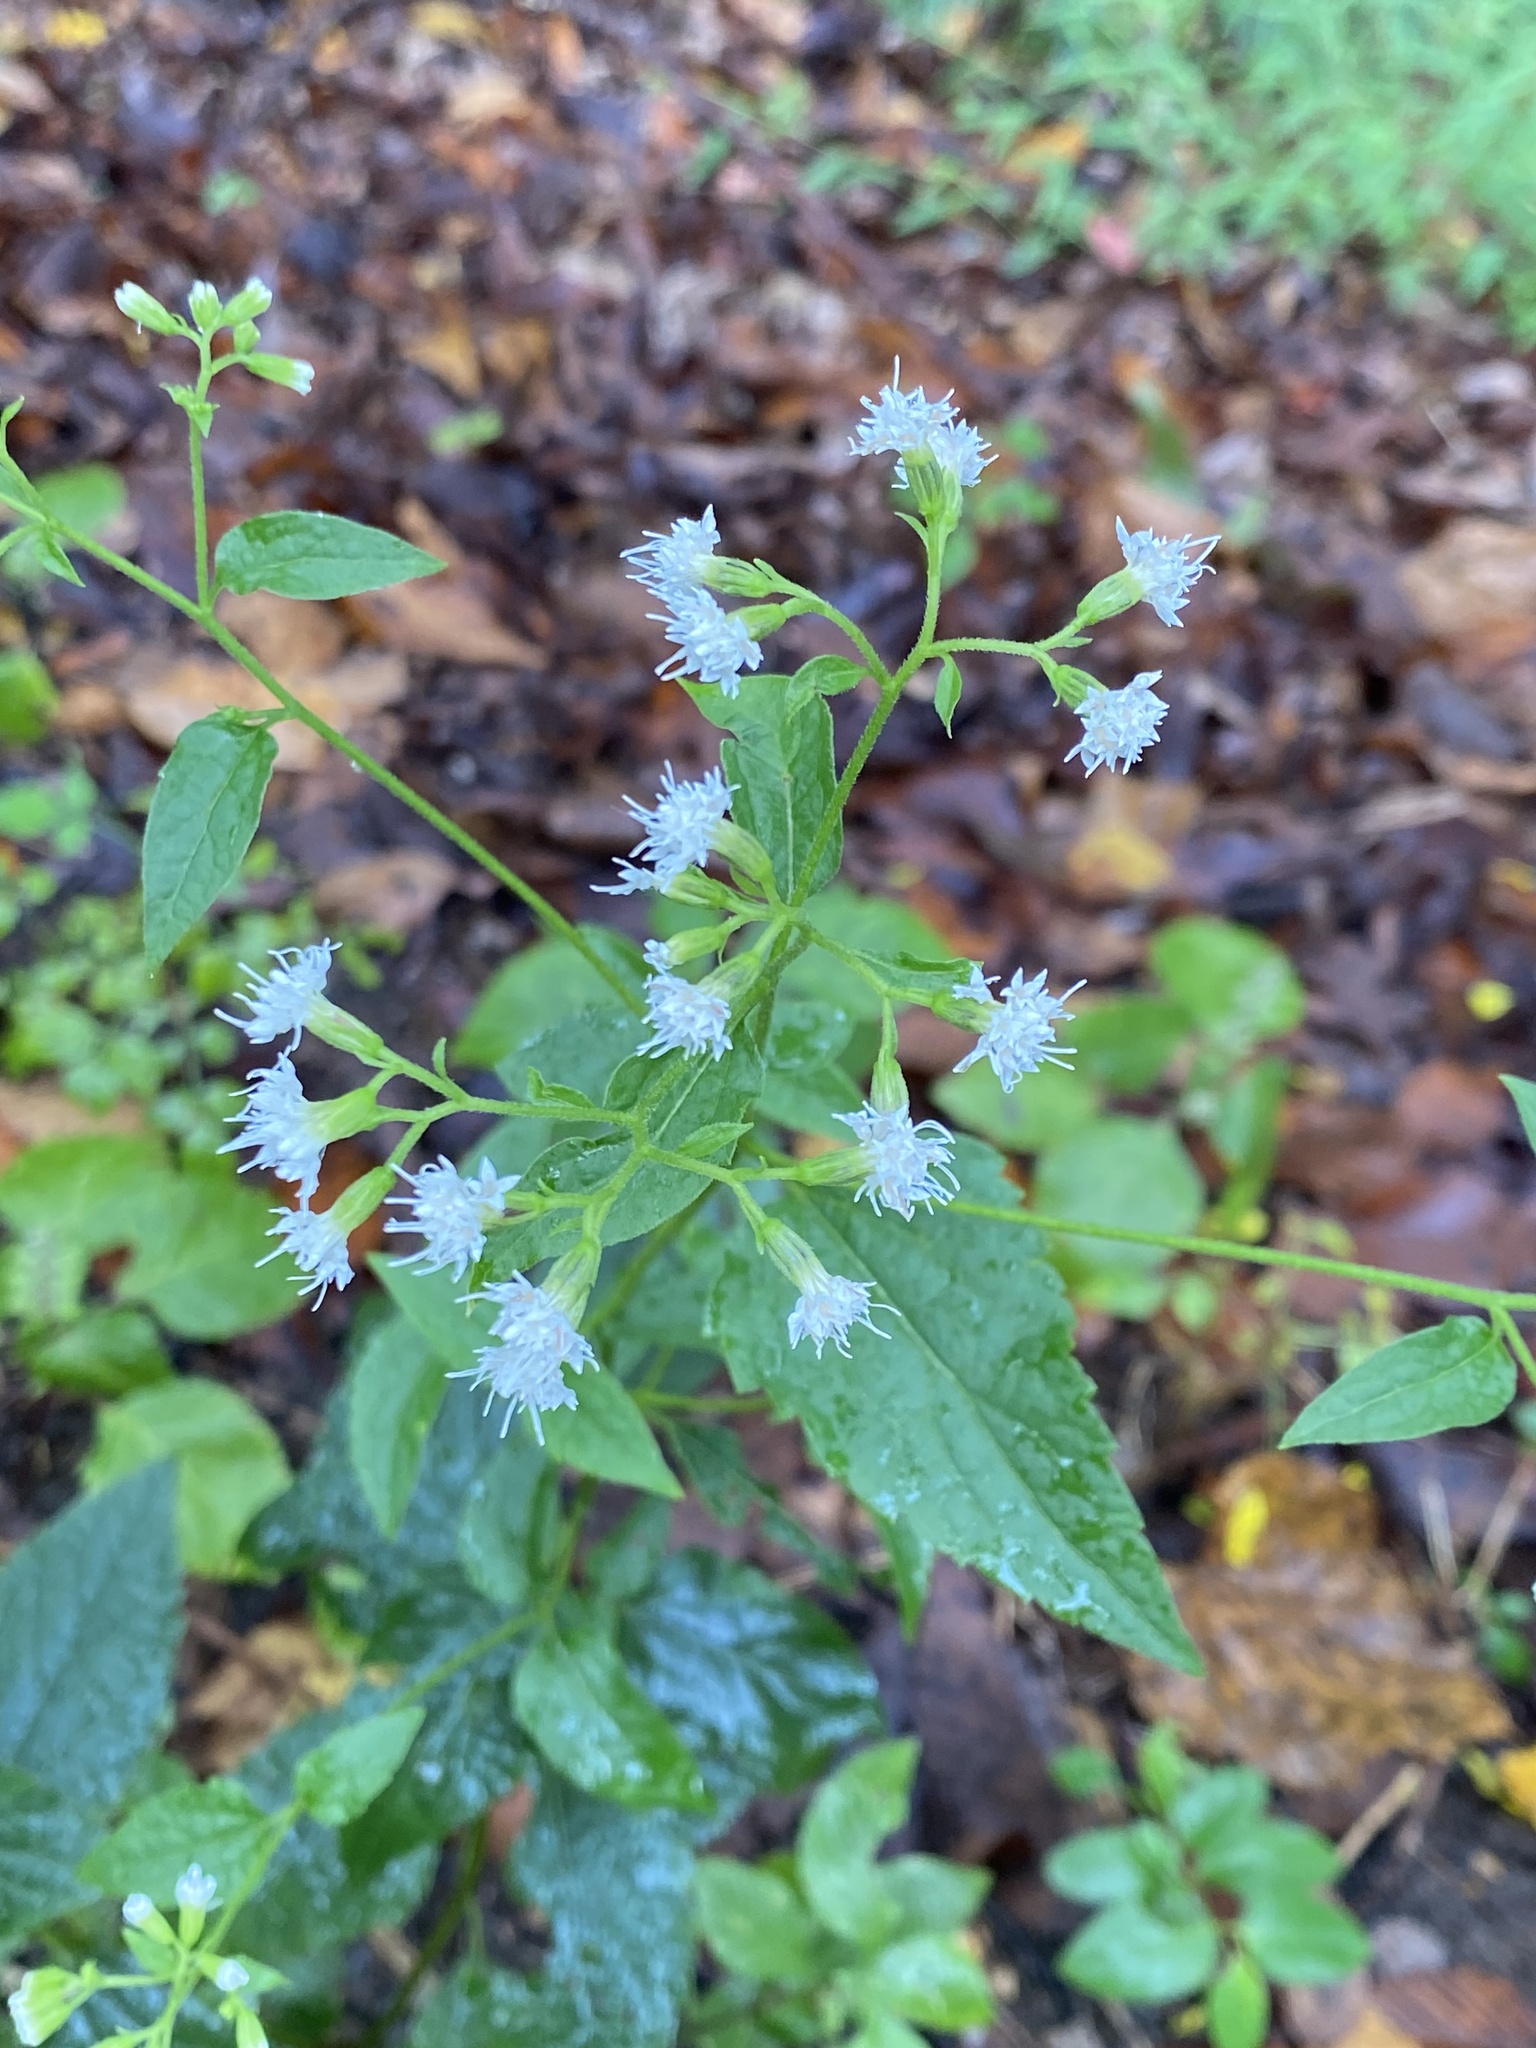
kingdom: Plantae
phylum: Tracheophyta
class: Magnoliopsida
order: Asterales
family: Asteraceae
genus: Ageratina
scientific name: Ageratina altissima
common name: White snakeroot
